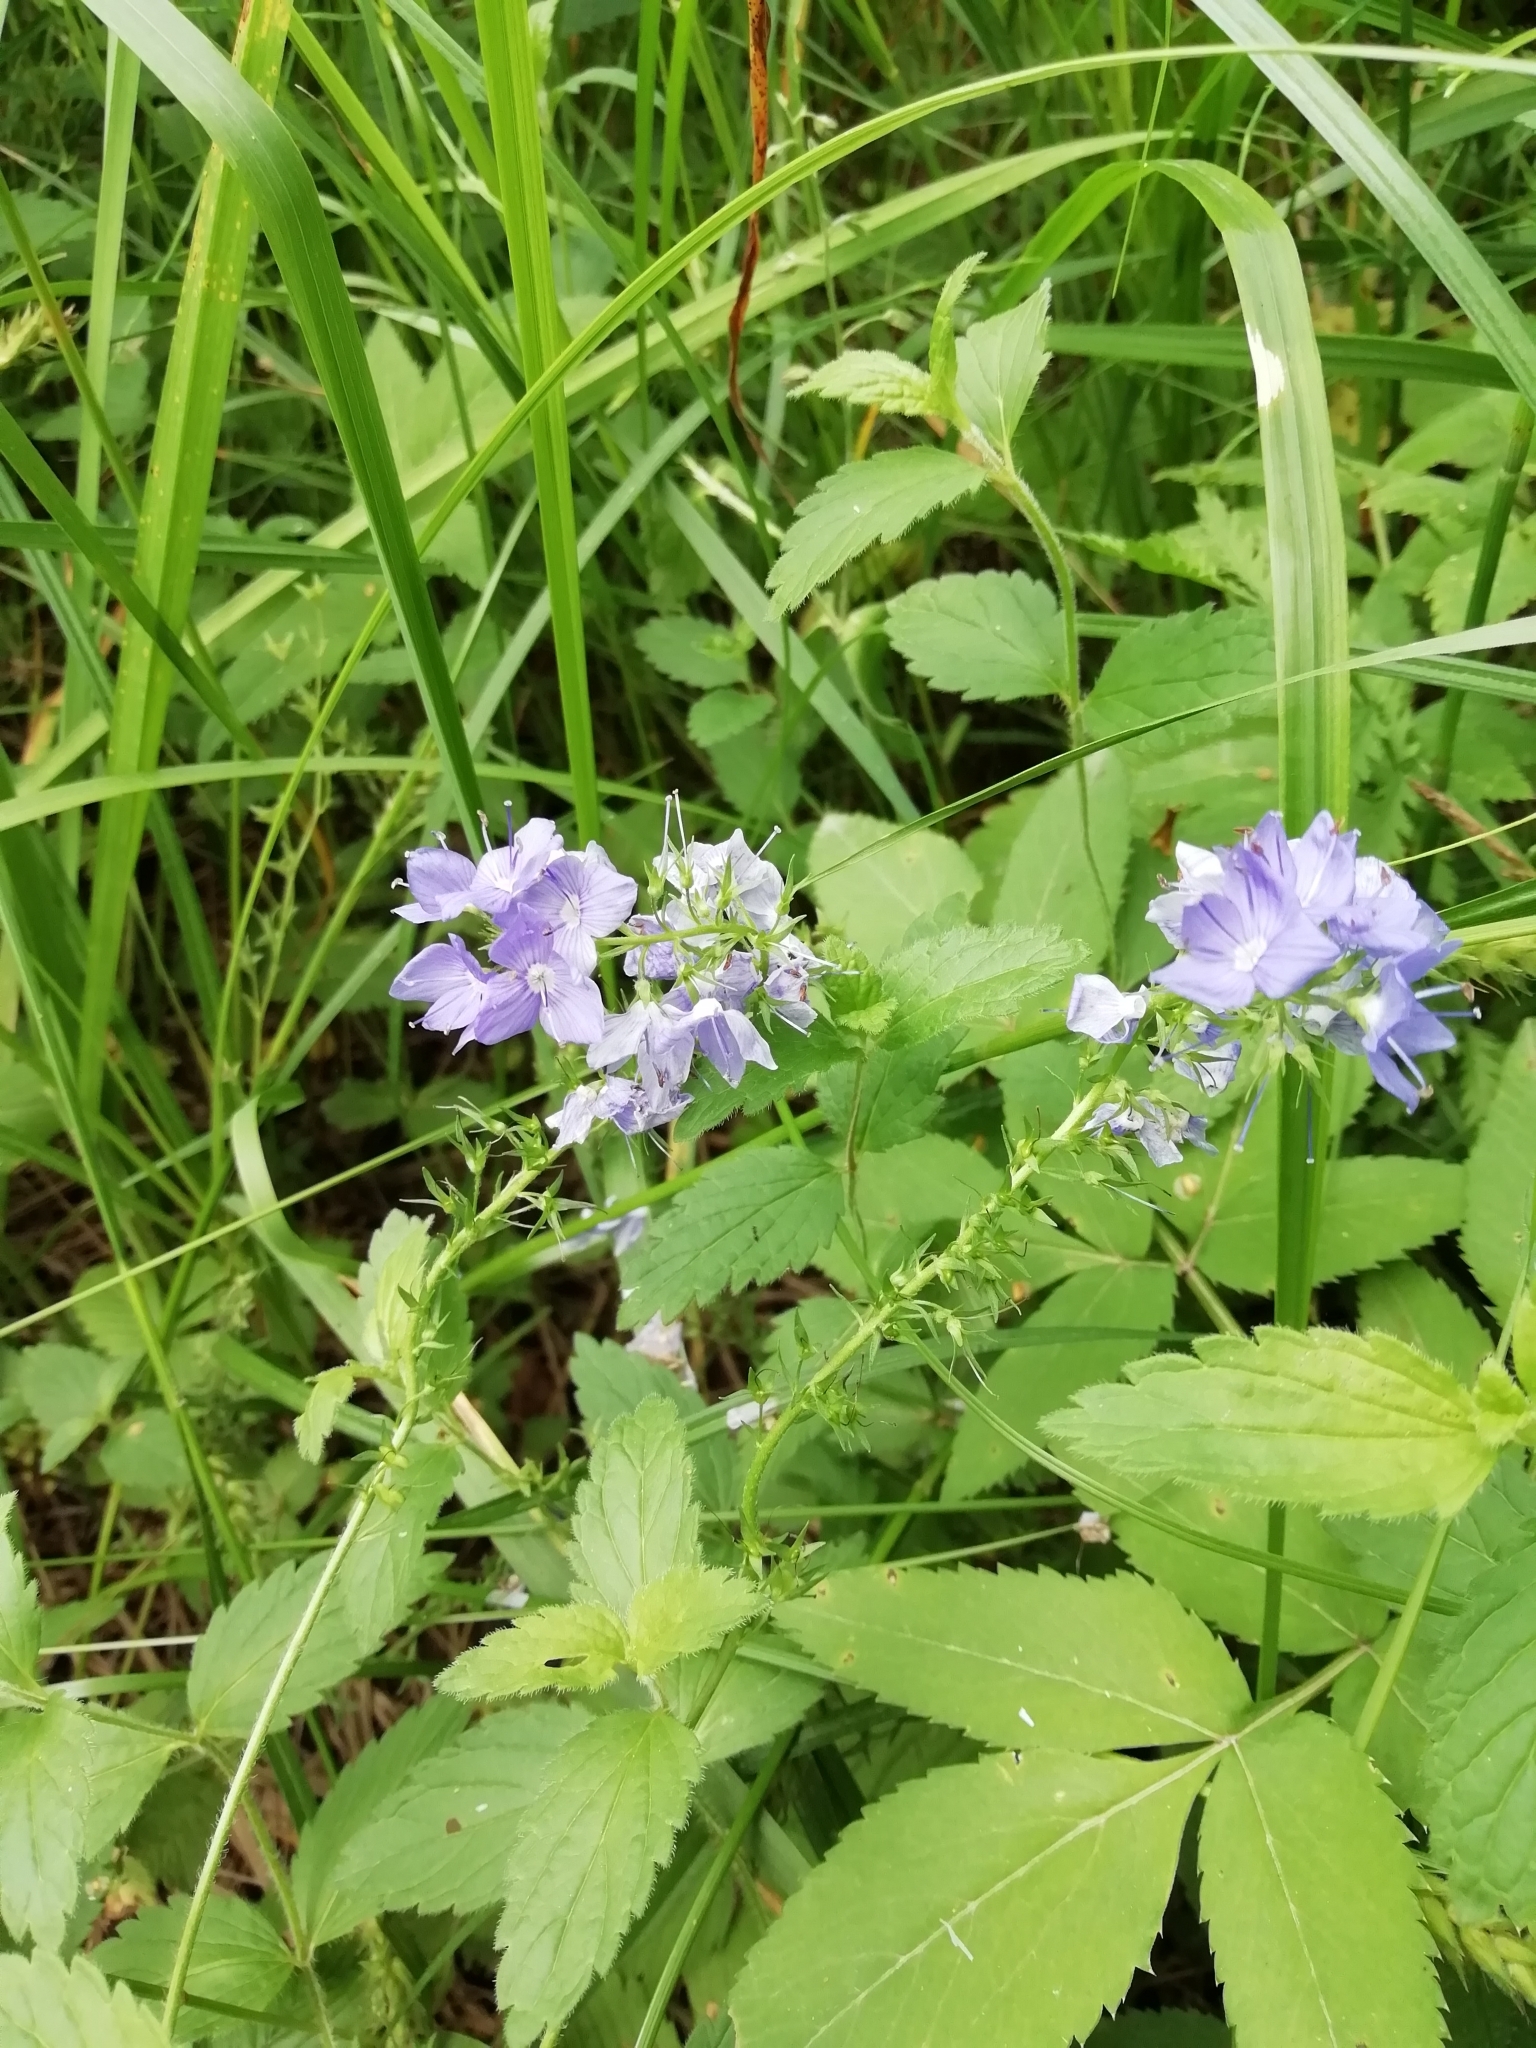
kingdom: Plantae
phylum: Tracheophyta
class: Magnoliopsida
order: Lamiales
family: Plantaginaceae
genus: Veronica
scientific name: Veronica teucrium
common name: Large speedwell
